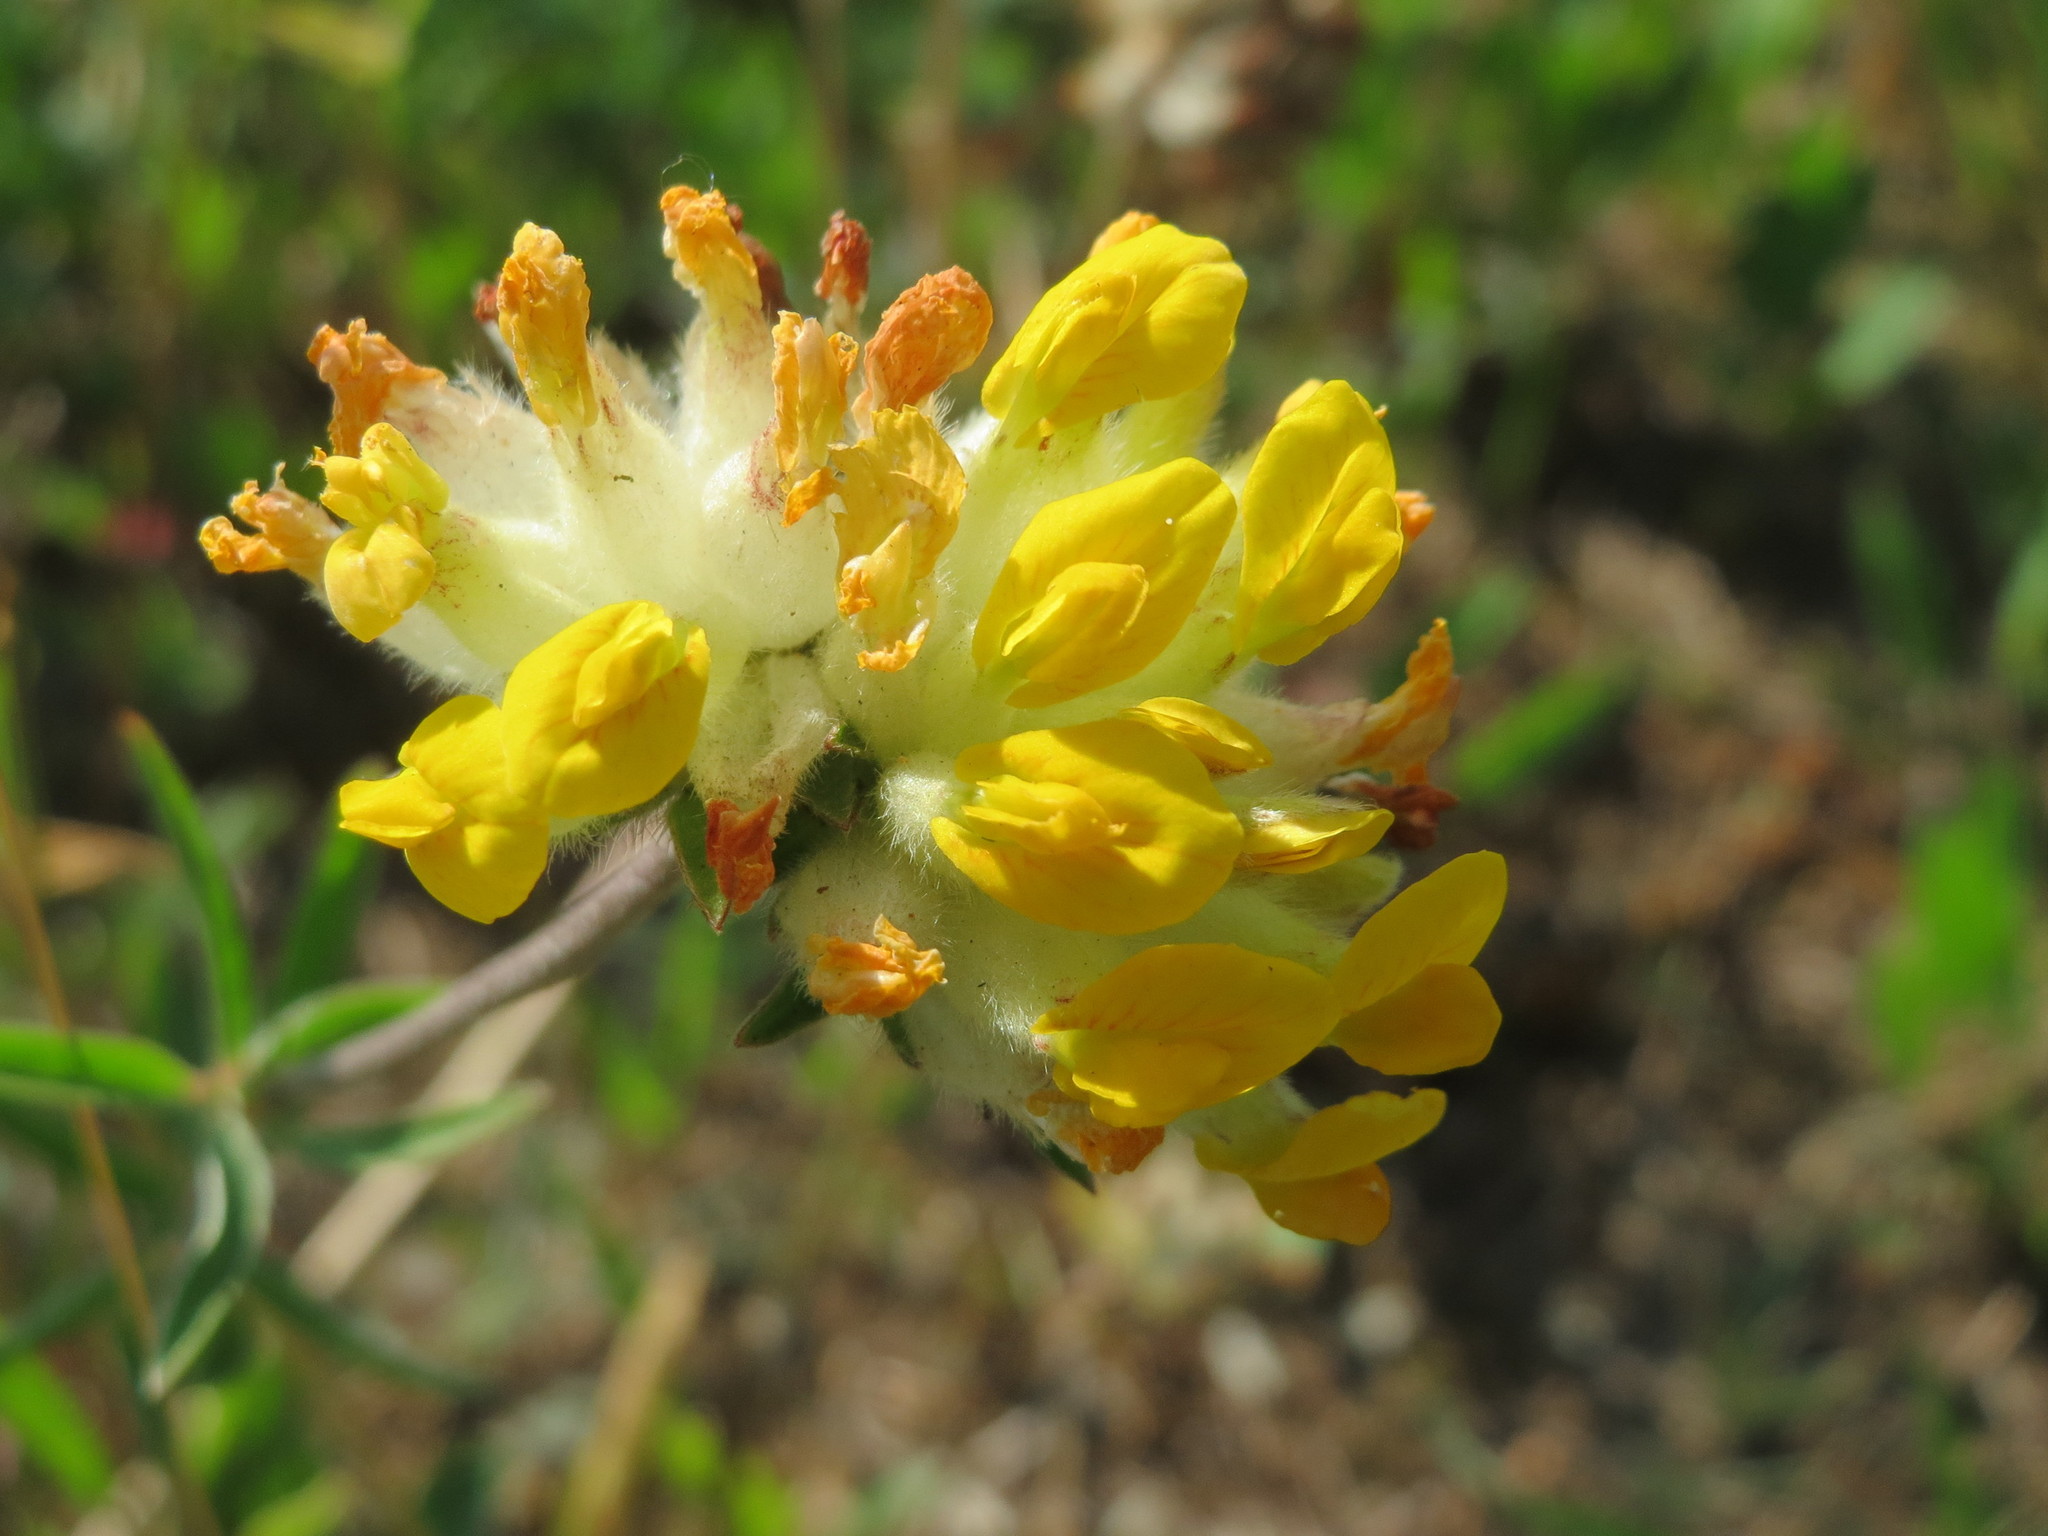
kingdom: Plantae
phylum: Tracheophyta
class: Magnoliopsida
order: Fabales
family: Fabaceae
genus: Anthyllis
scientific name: Anthyllis vulneraria
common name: Kidney vetch
